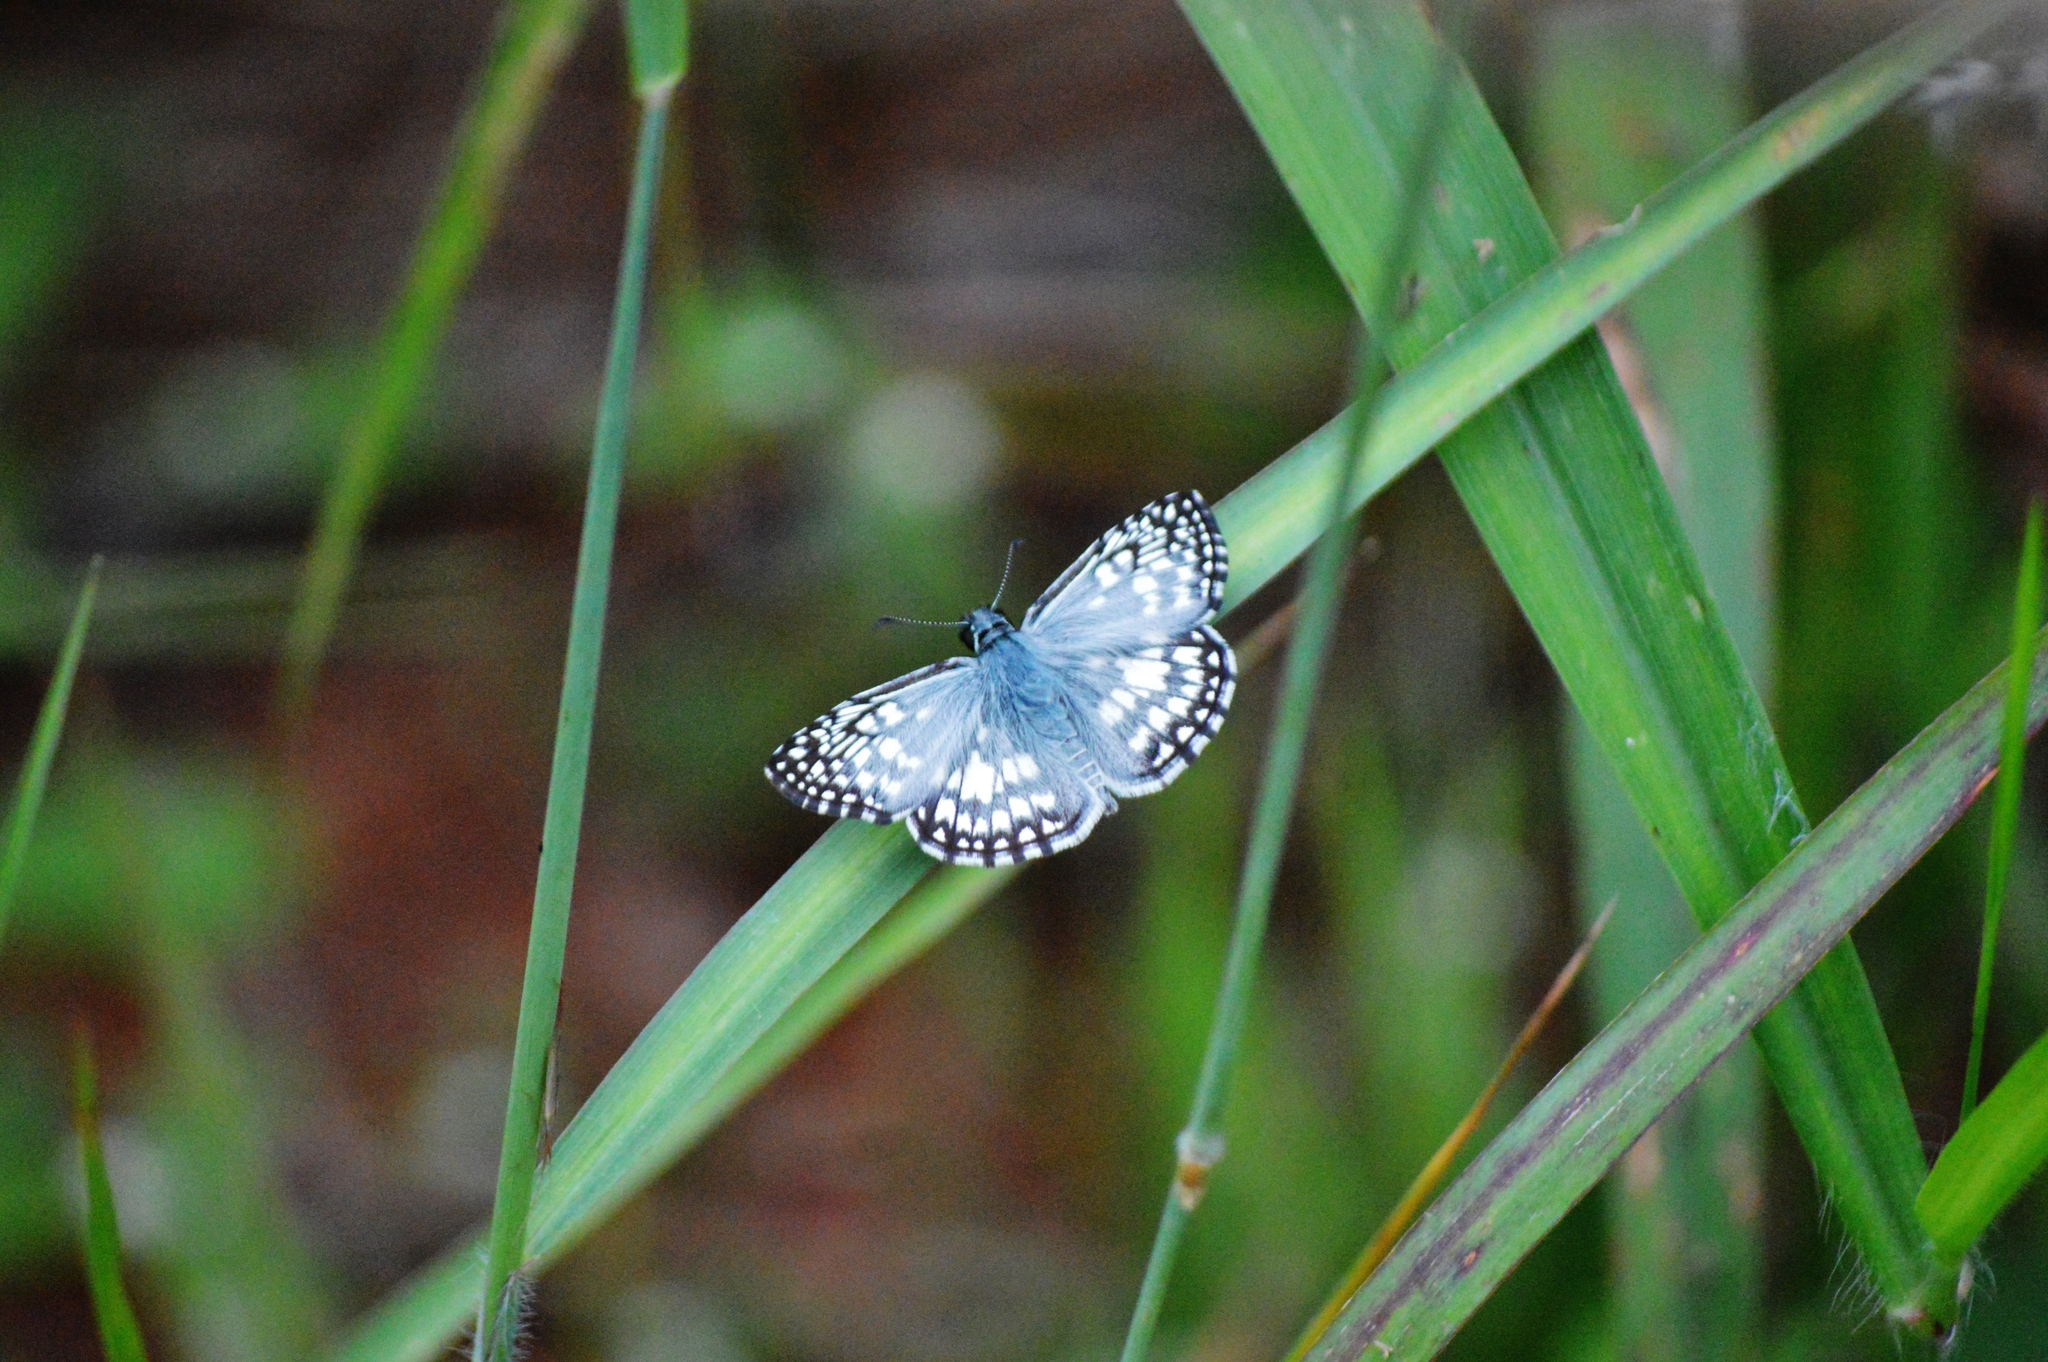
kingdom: Animalia
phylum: Arthropoda
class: Insecta
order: Lepidoptera
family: Hesperiidae
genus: Pyrgus
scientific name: Pyrgus oileus
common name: Tropical checkered-skipper
